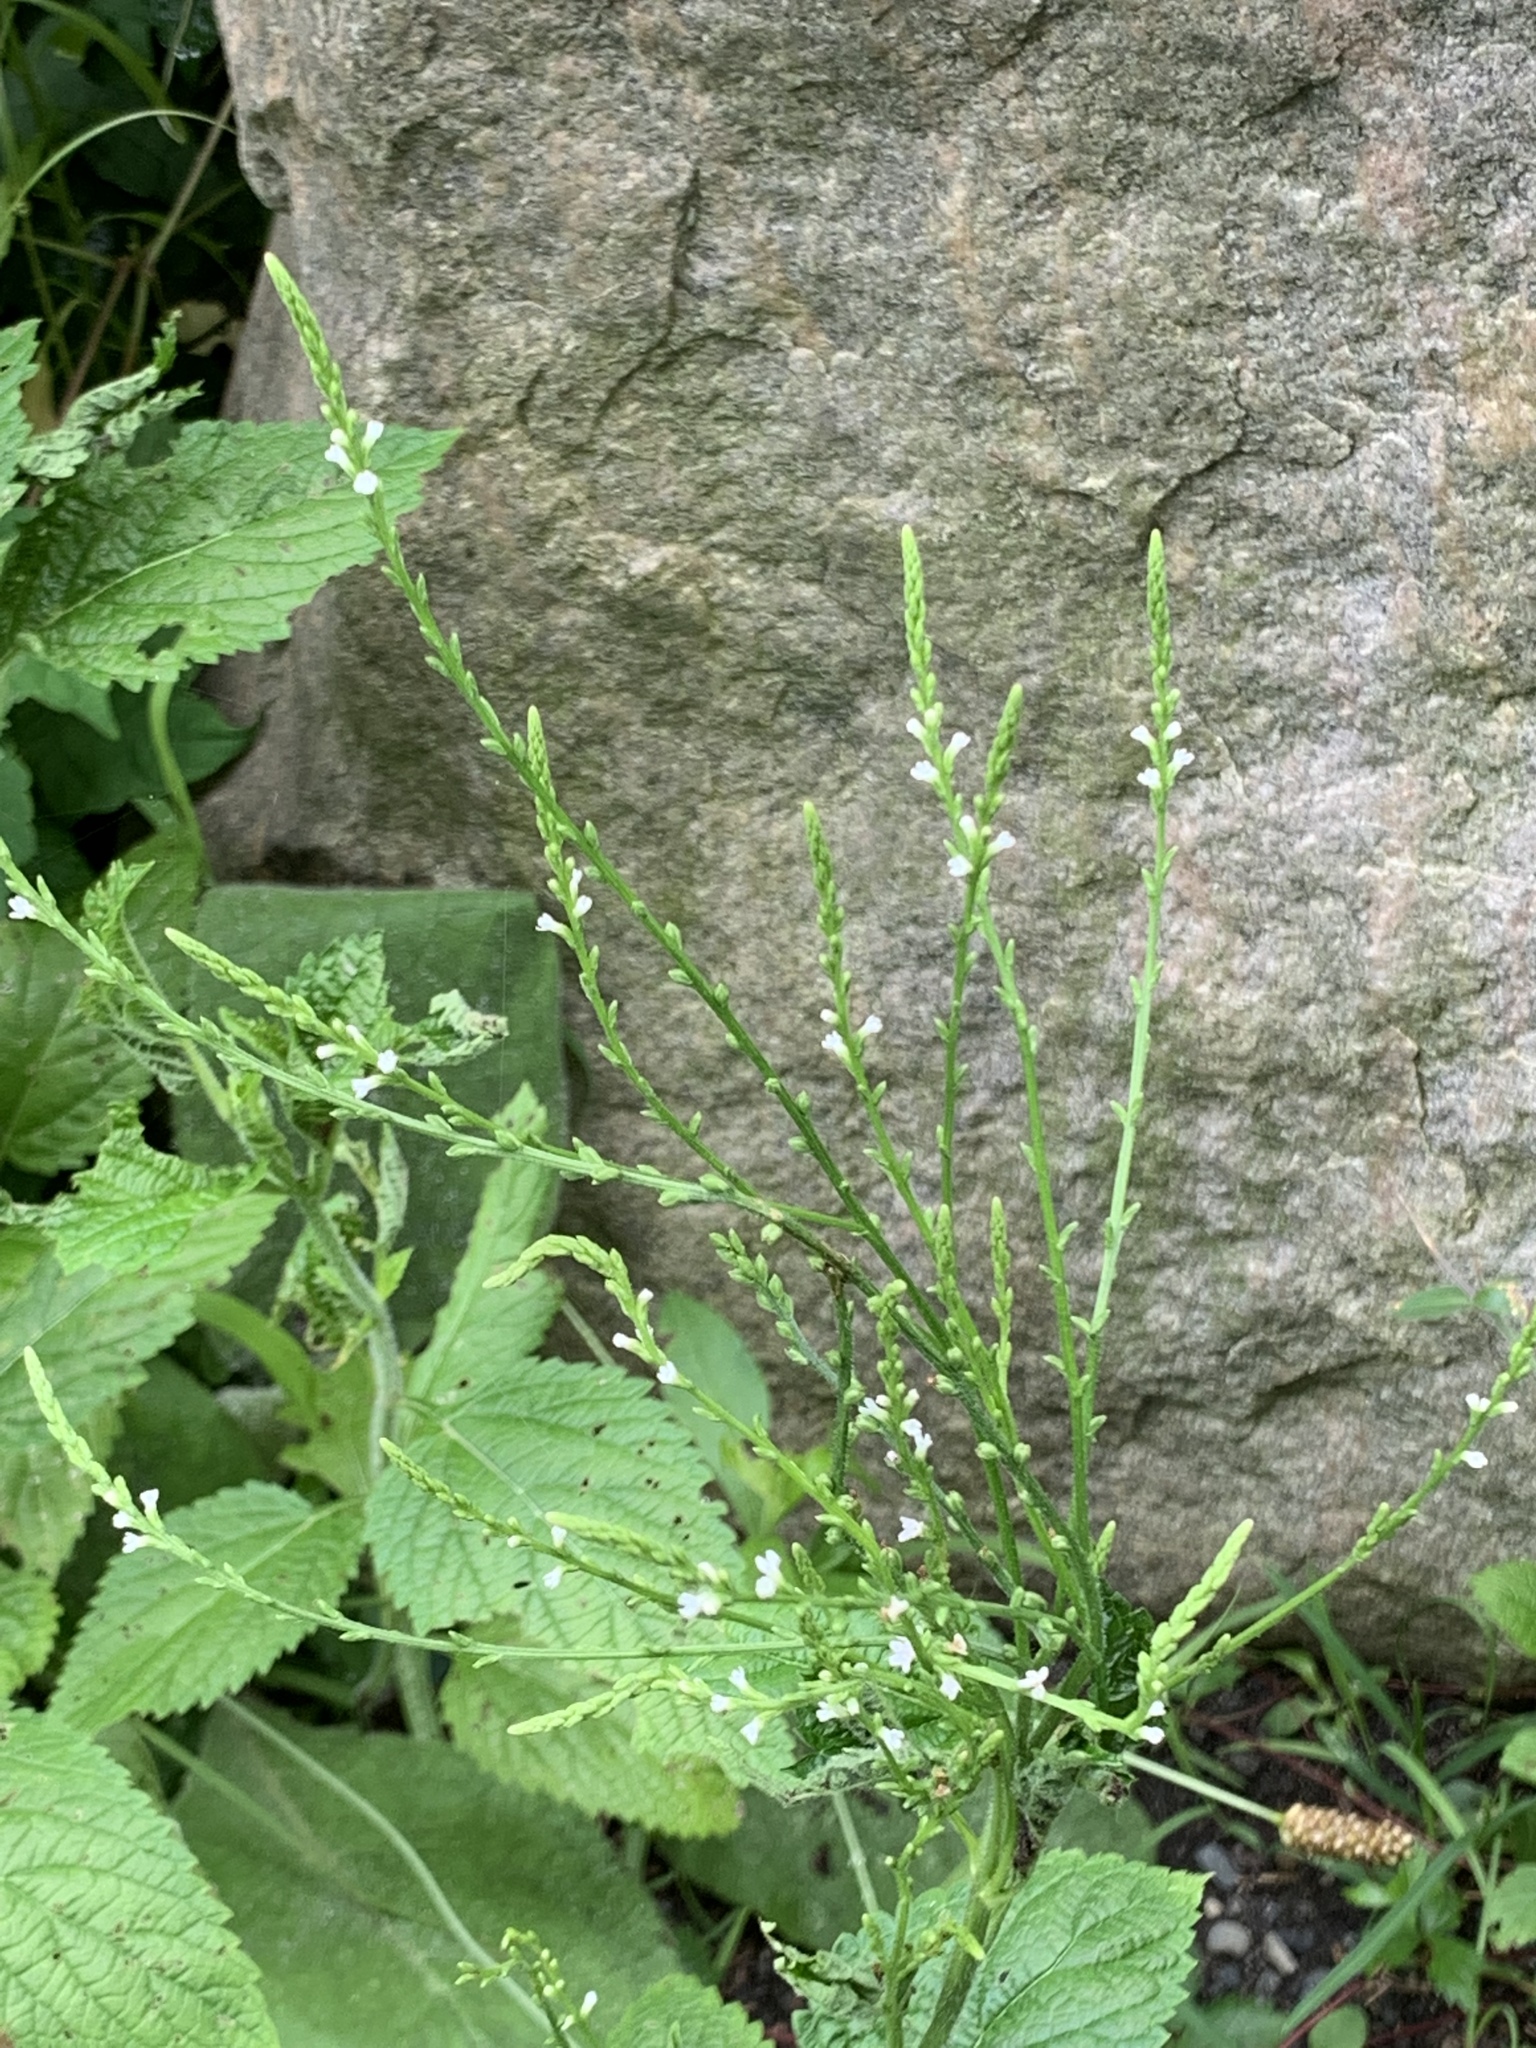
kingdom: Plantae
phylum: Tracheophyta
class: Magnoliopsida
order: Lamiales
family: Verbenaceae
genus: Verbena
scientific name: Verbena urticifolia
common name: Nettle-leaved vervain
